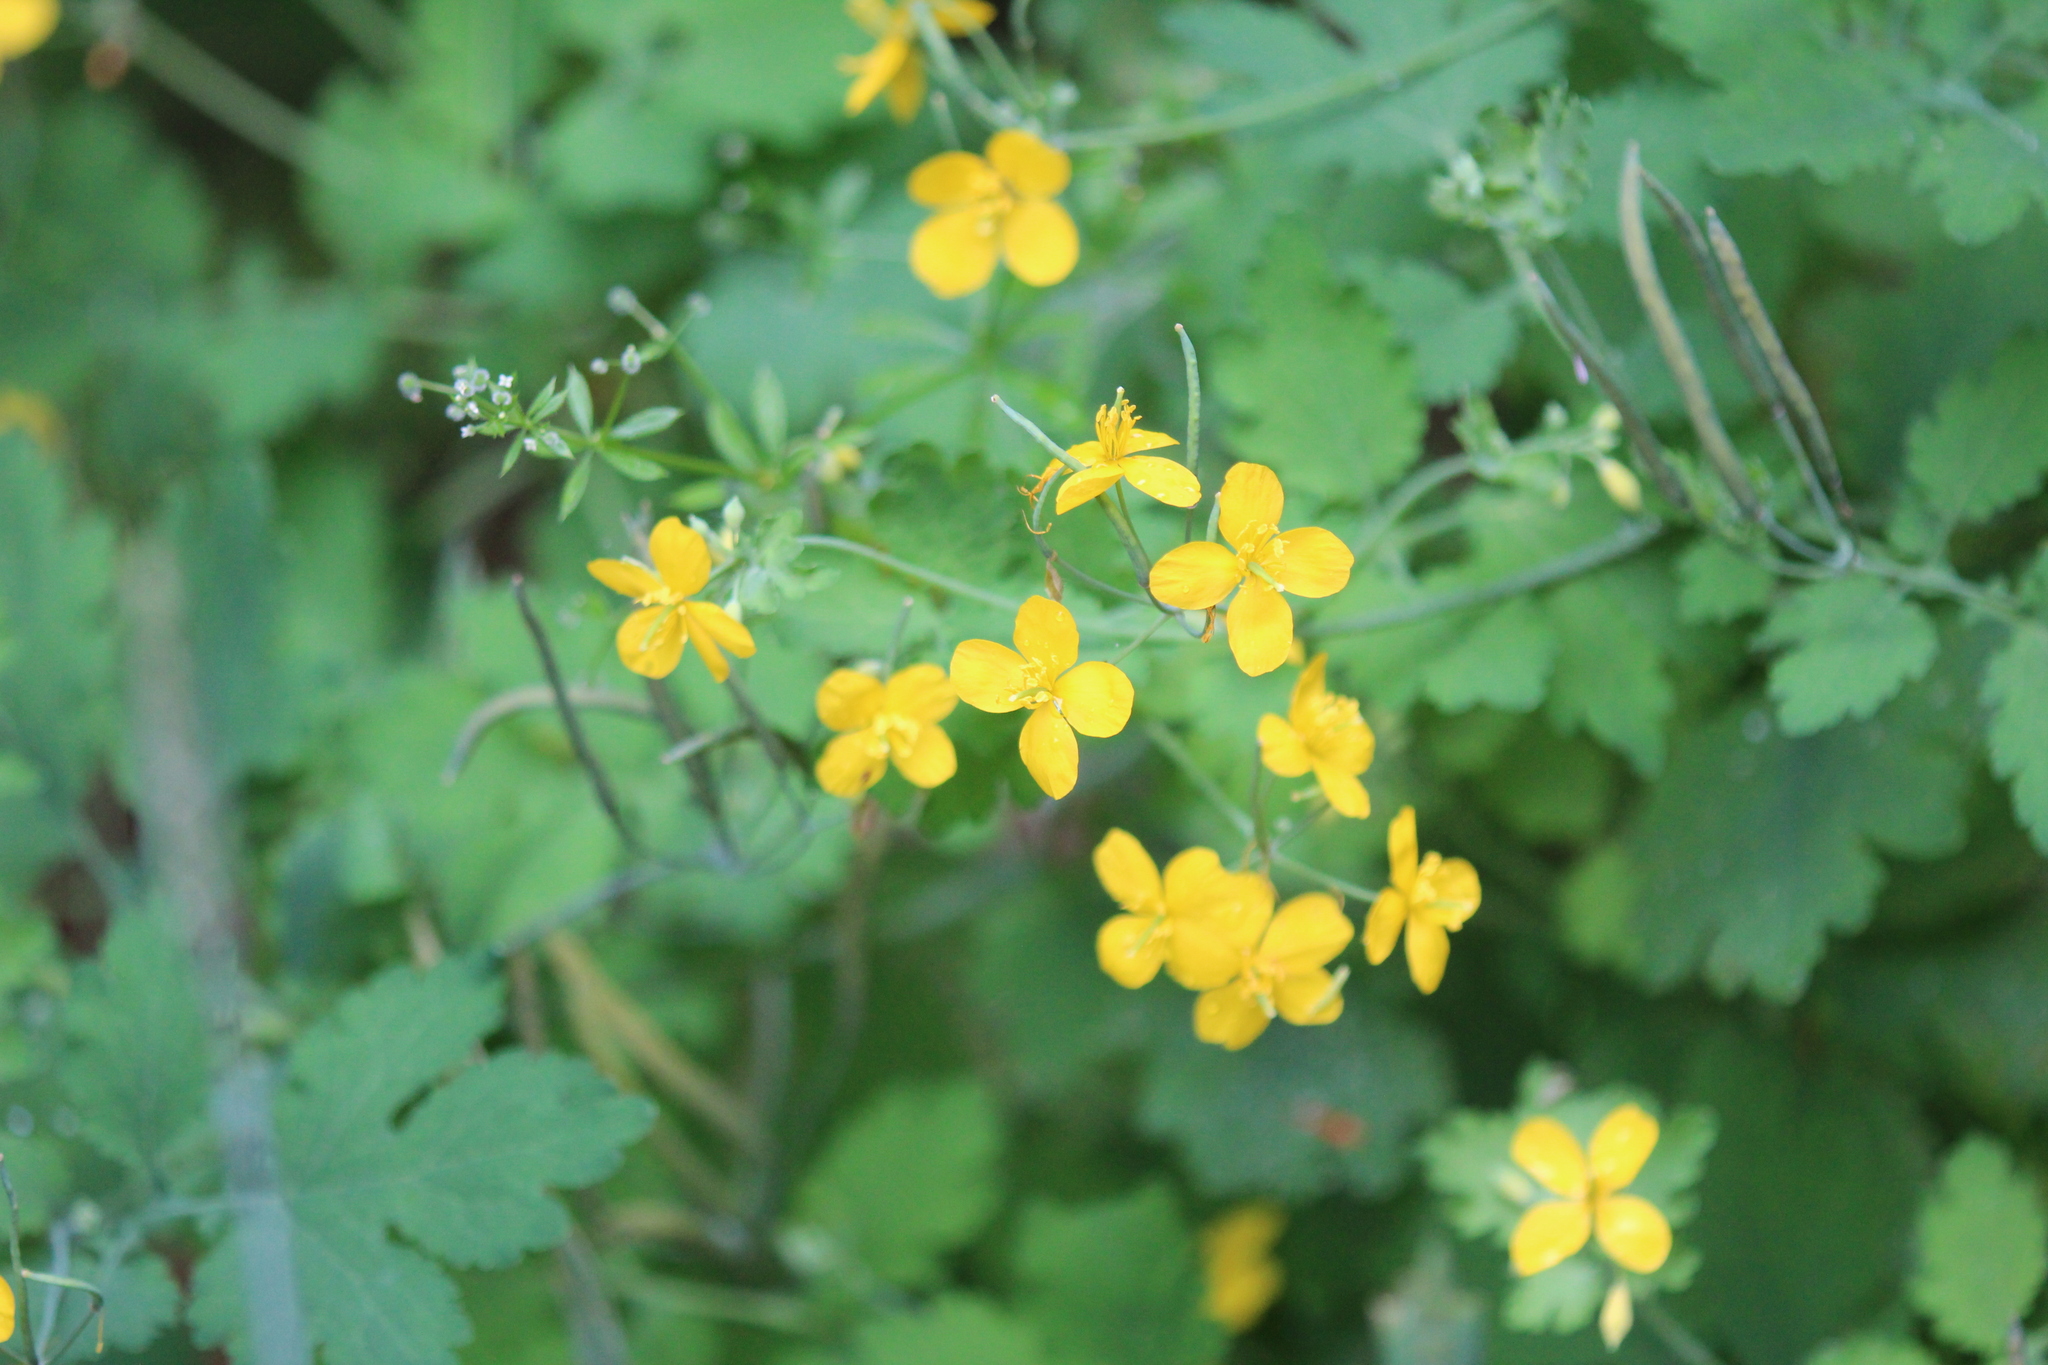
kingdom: Plantae
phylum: Tracheophyta
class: Magnoliopsida
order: Ranunculales
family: Papaveraceae
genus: Chelidonium
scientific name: Chelidonium majus
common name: Greater celandine
